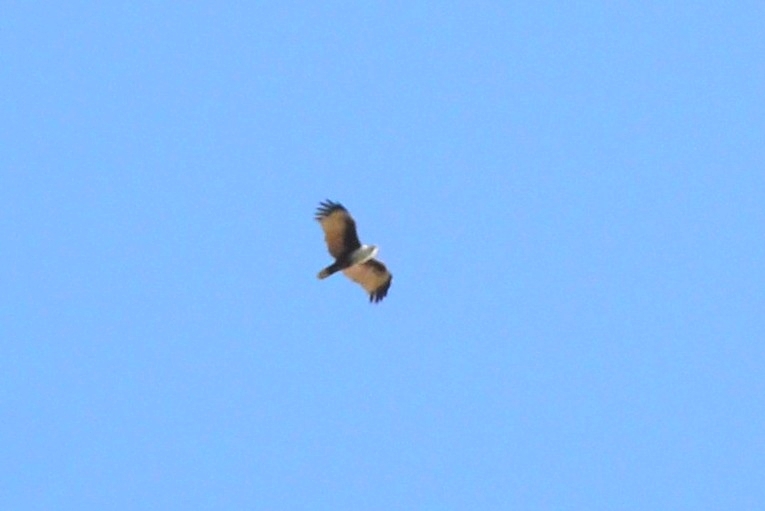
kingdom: Animalia
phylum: Chordata
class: Aves
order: Accipitriformes
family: Accipitridae
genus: Haliastur
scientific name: Haliastur indus
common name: Brahminy kite
